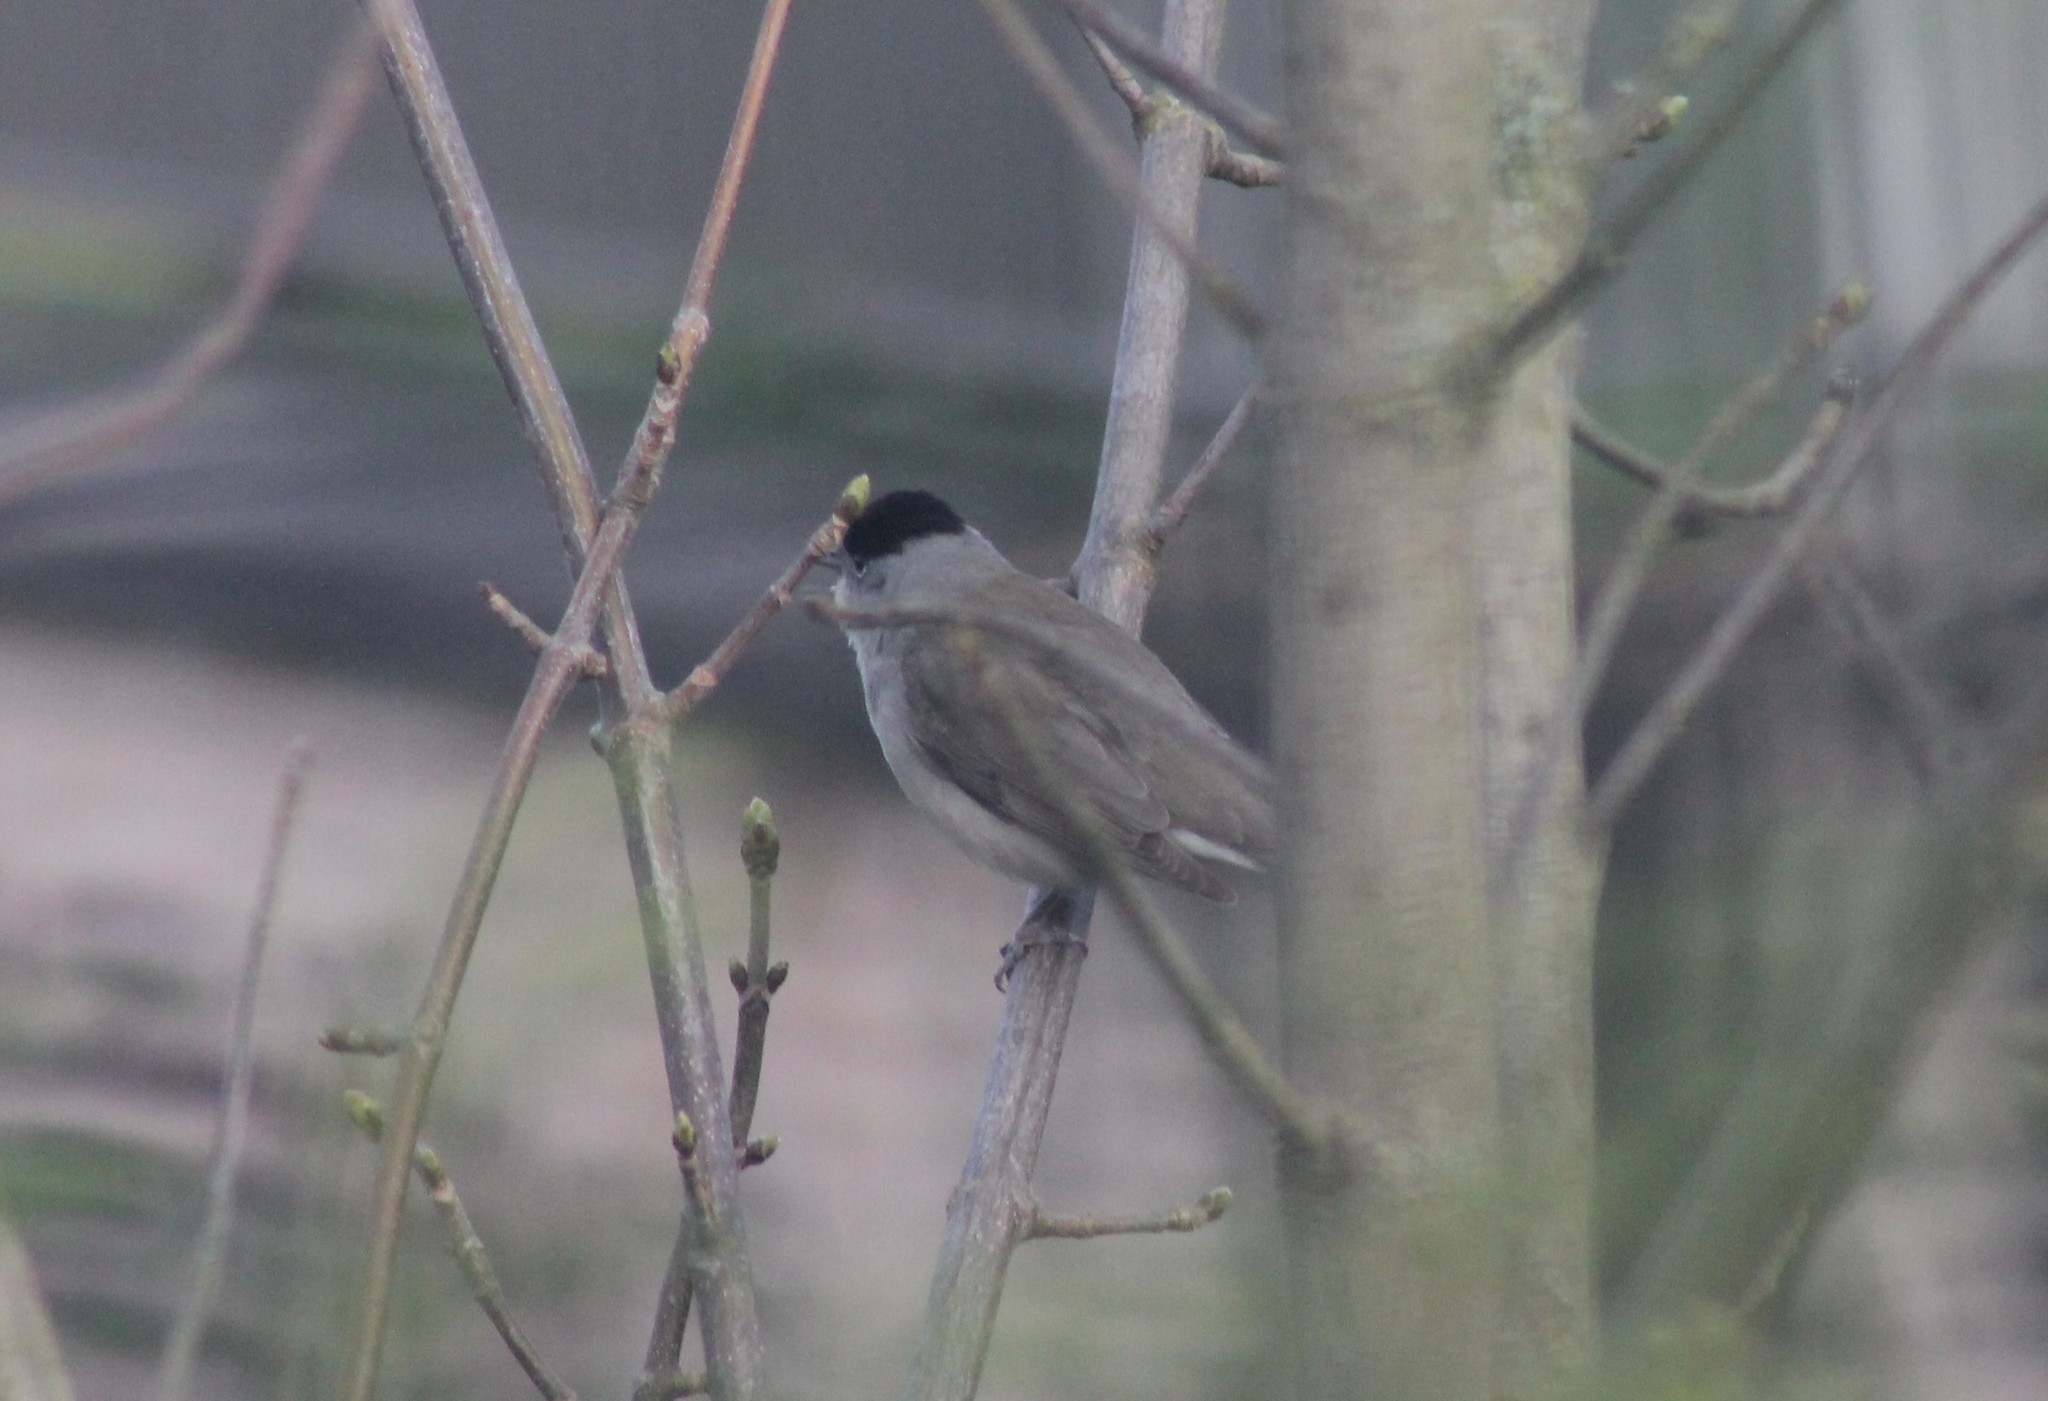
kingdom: Animalia
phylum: Chordata
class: Aves
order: Passeriformes
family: Sylviidae
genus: Sylvia
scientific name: Sylvia atricapilla
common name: Eurasian blackcap
